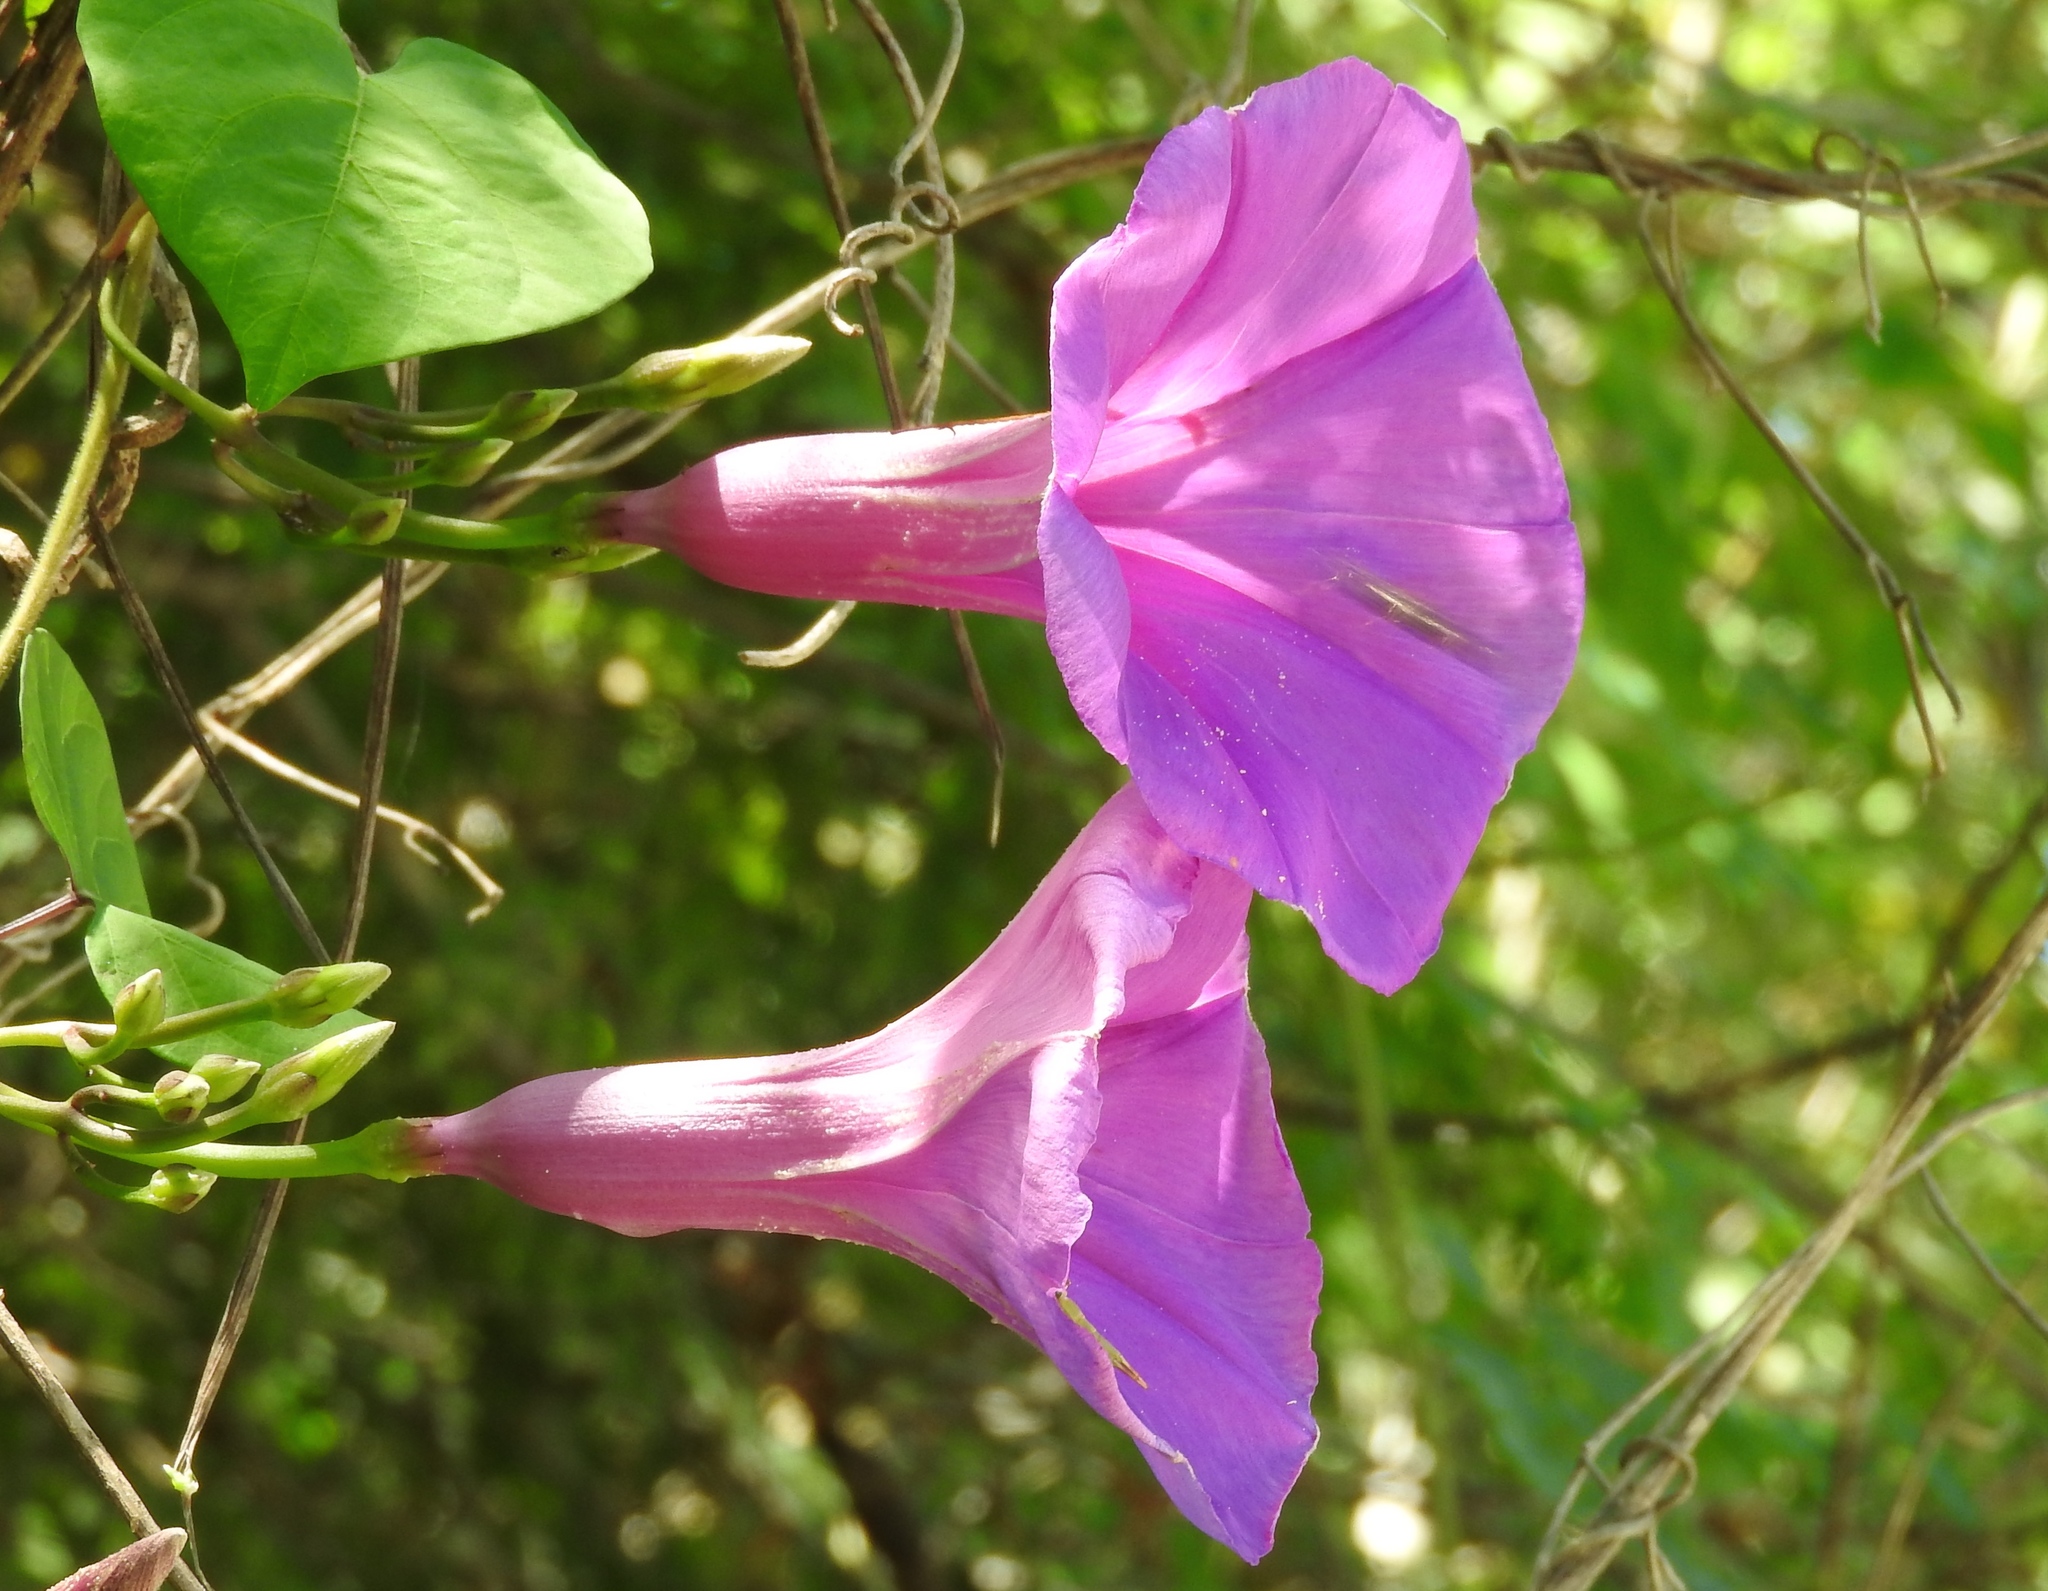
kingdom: Plantae
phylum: Tracheophyta
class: Magnoliopsida
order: Solanales
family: Convolvulaceae
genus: Ipomoea
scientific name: Ipomoea pedicellaris
